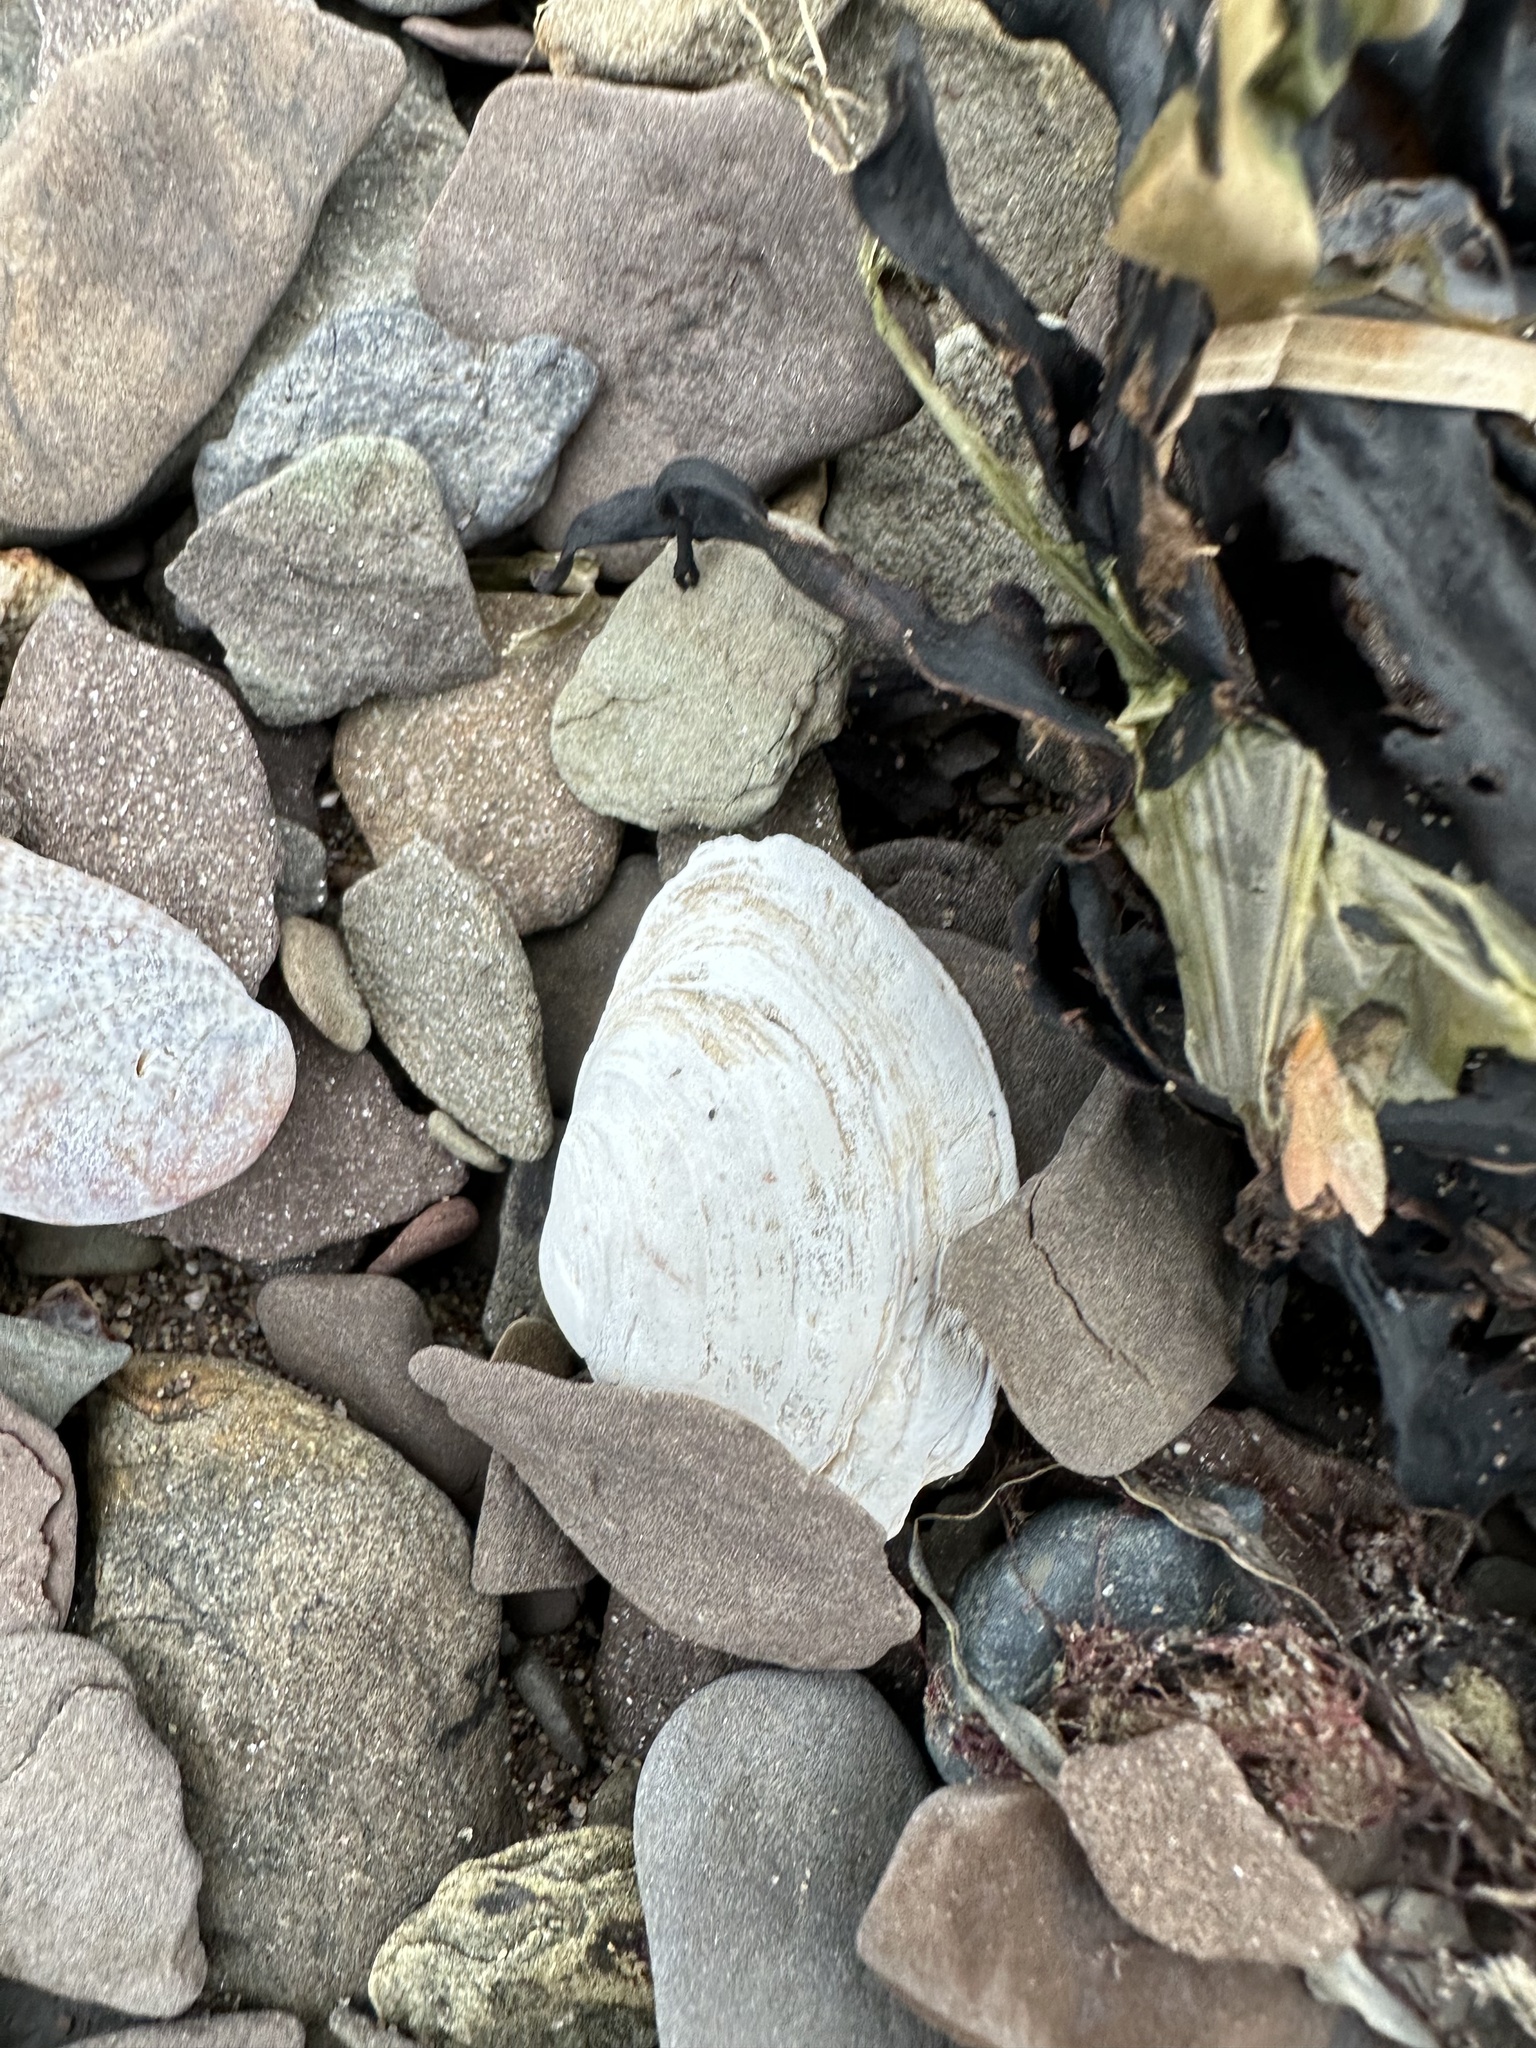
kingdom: Animalia
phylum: Mollusca
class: Bivalvia
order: Myida
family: Myidae
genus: Mya
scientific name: Mya arenaria
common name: Soft-shelled clam
